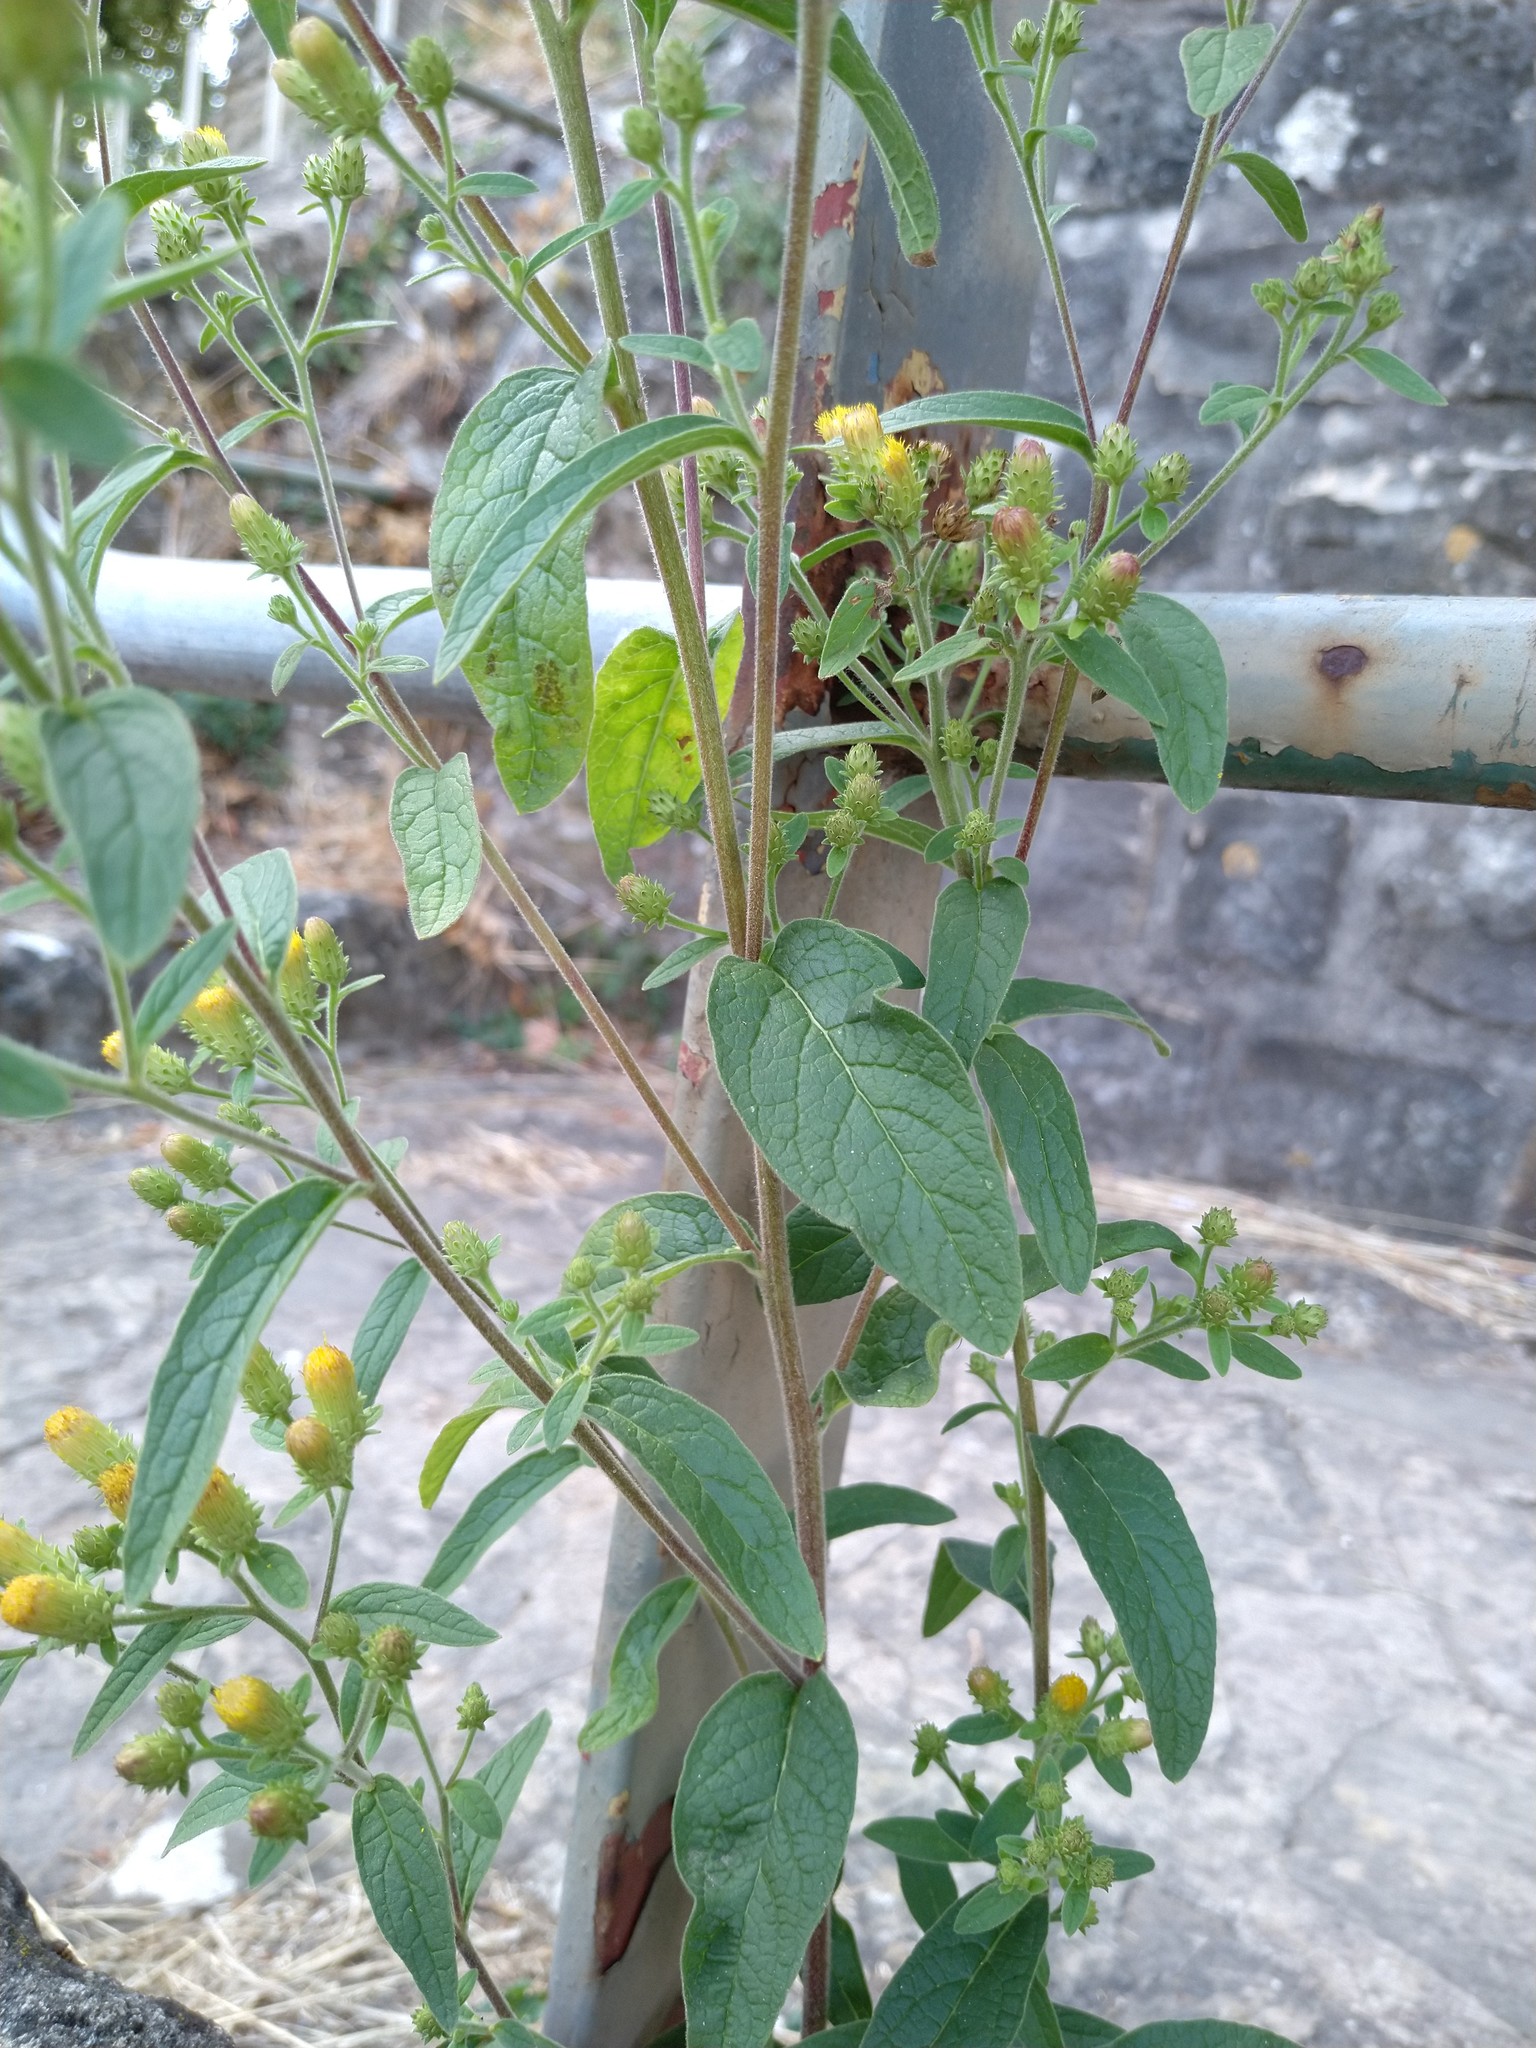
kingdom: Plantae
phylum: Tracheophyta
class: Magnoliopsida
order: Asterales
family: Asteraceae
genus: Pentanema
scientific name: Pentanema squarrosum
